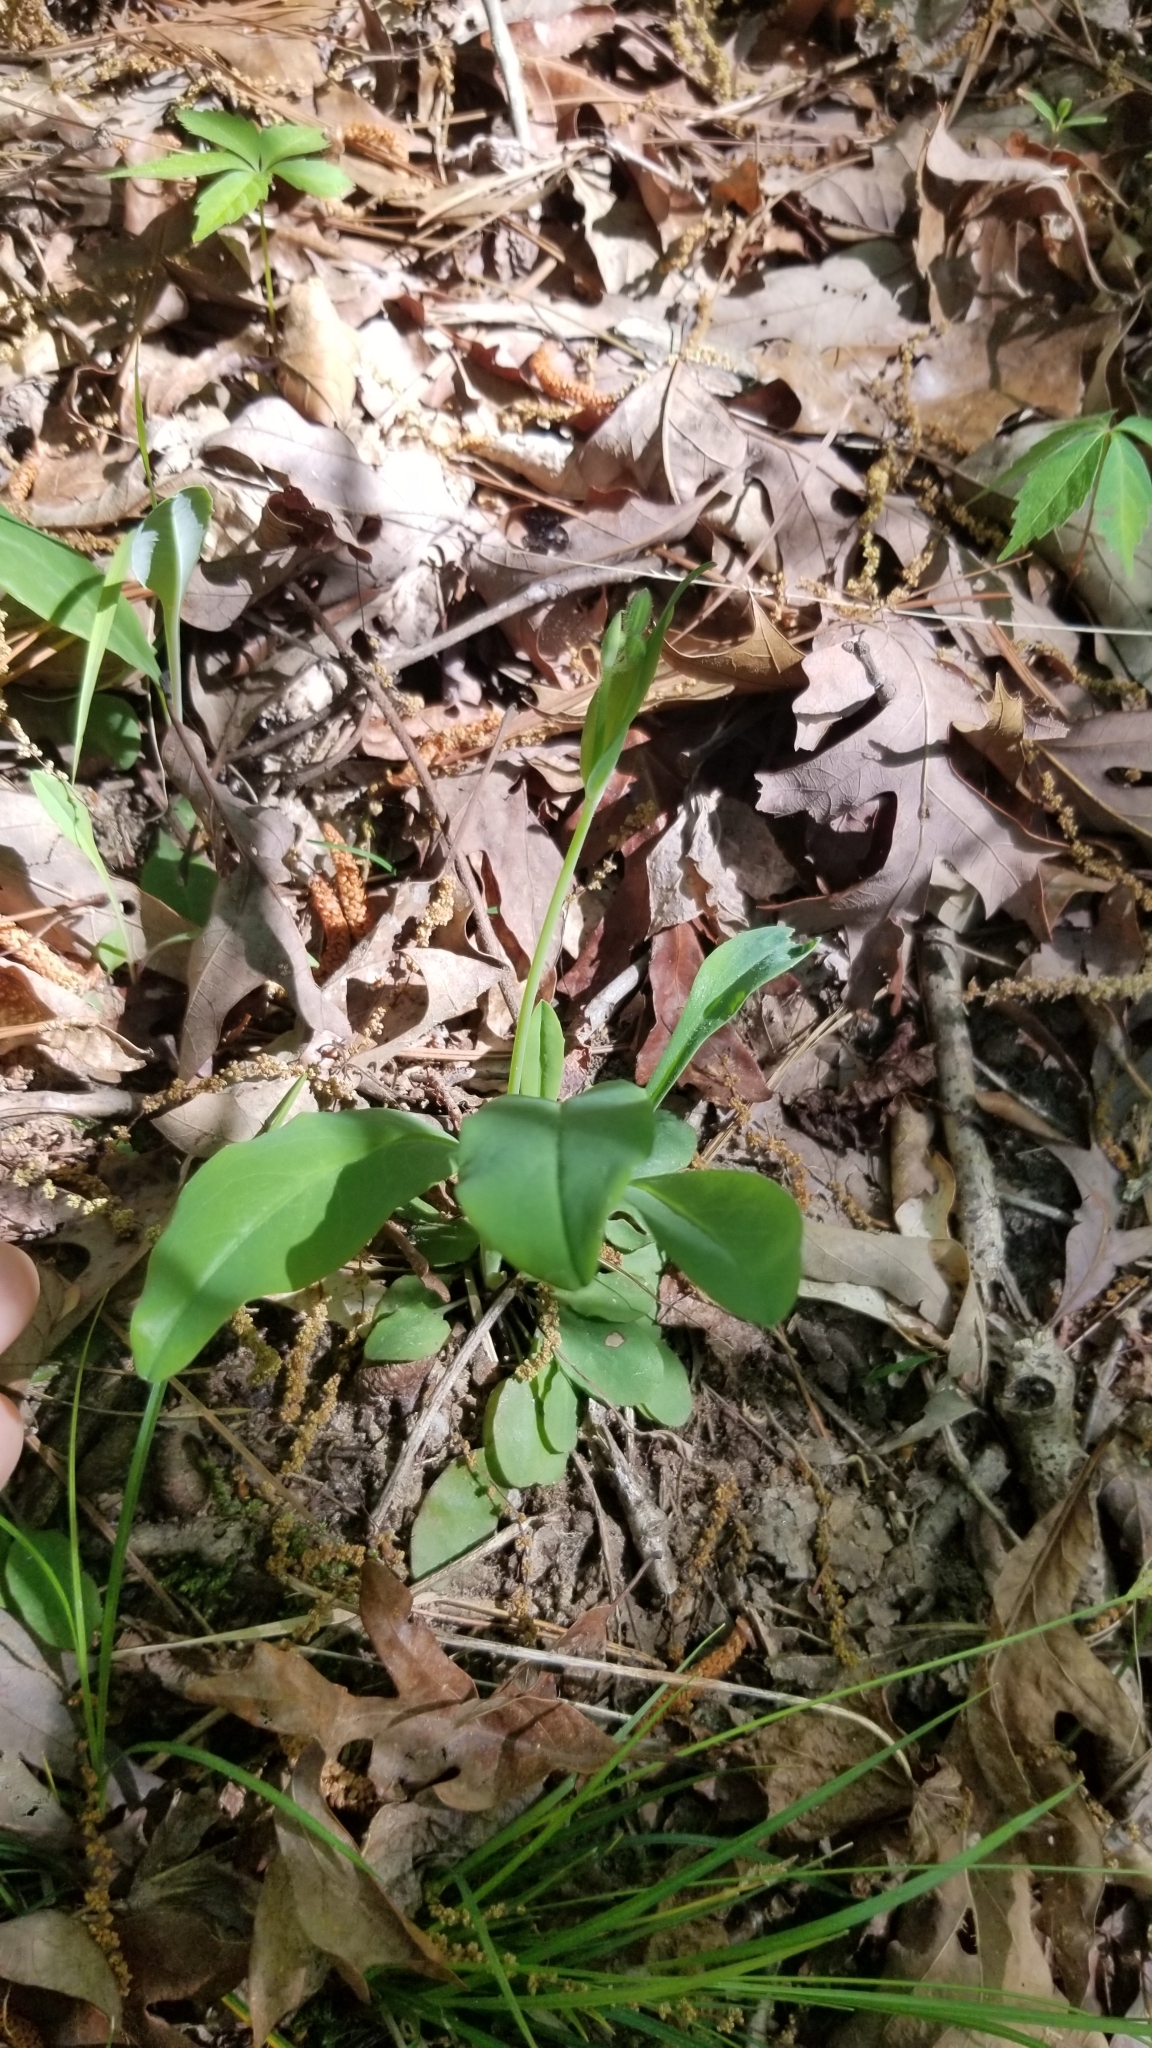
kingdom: Plantae
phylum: Tracheophyta
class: Magnoliopsida
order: Asterales
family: Asteraceae
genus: Krigia
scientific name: Krigia biflora
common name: Orange dwarf-dandelion
